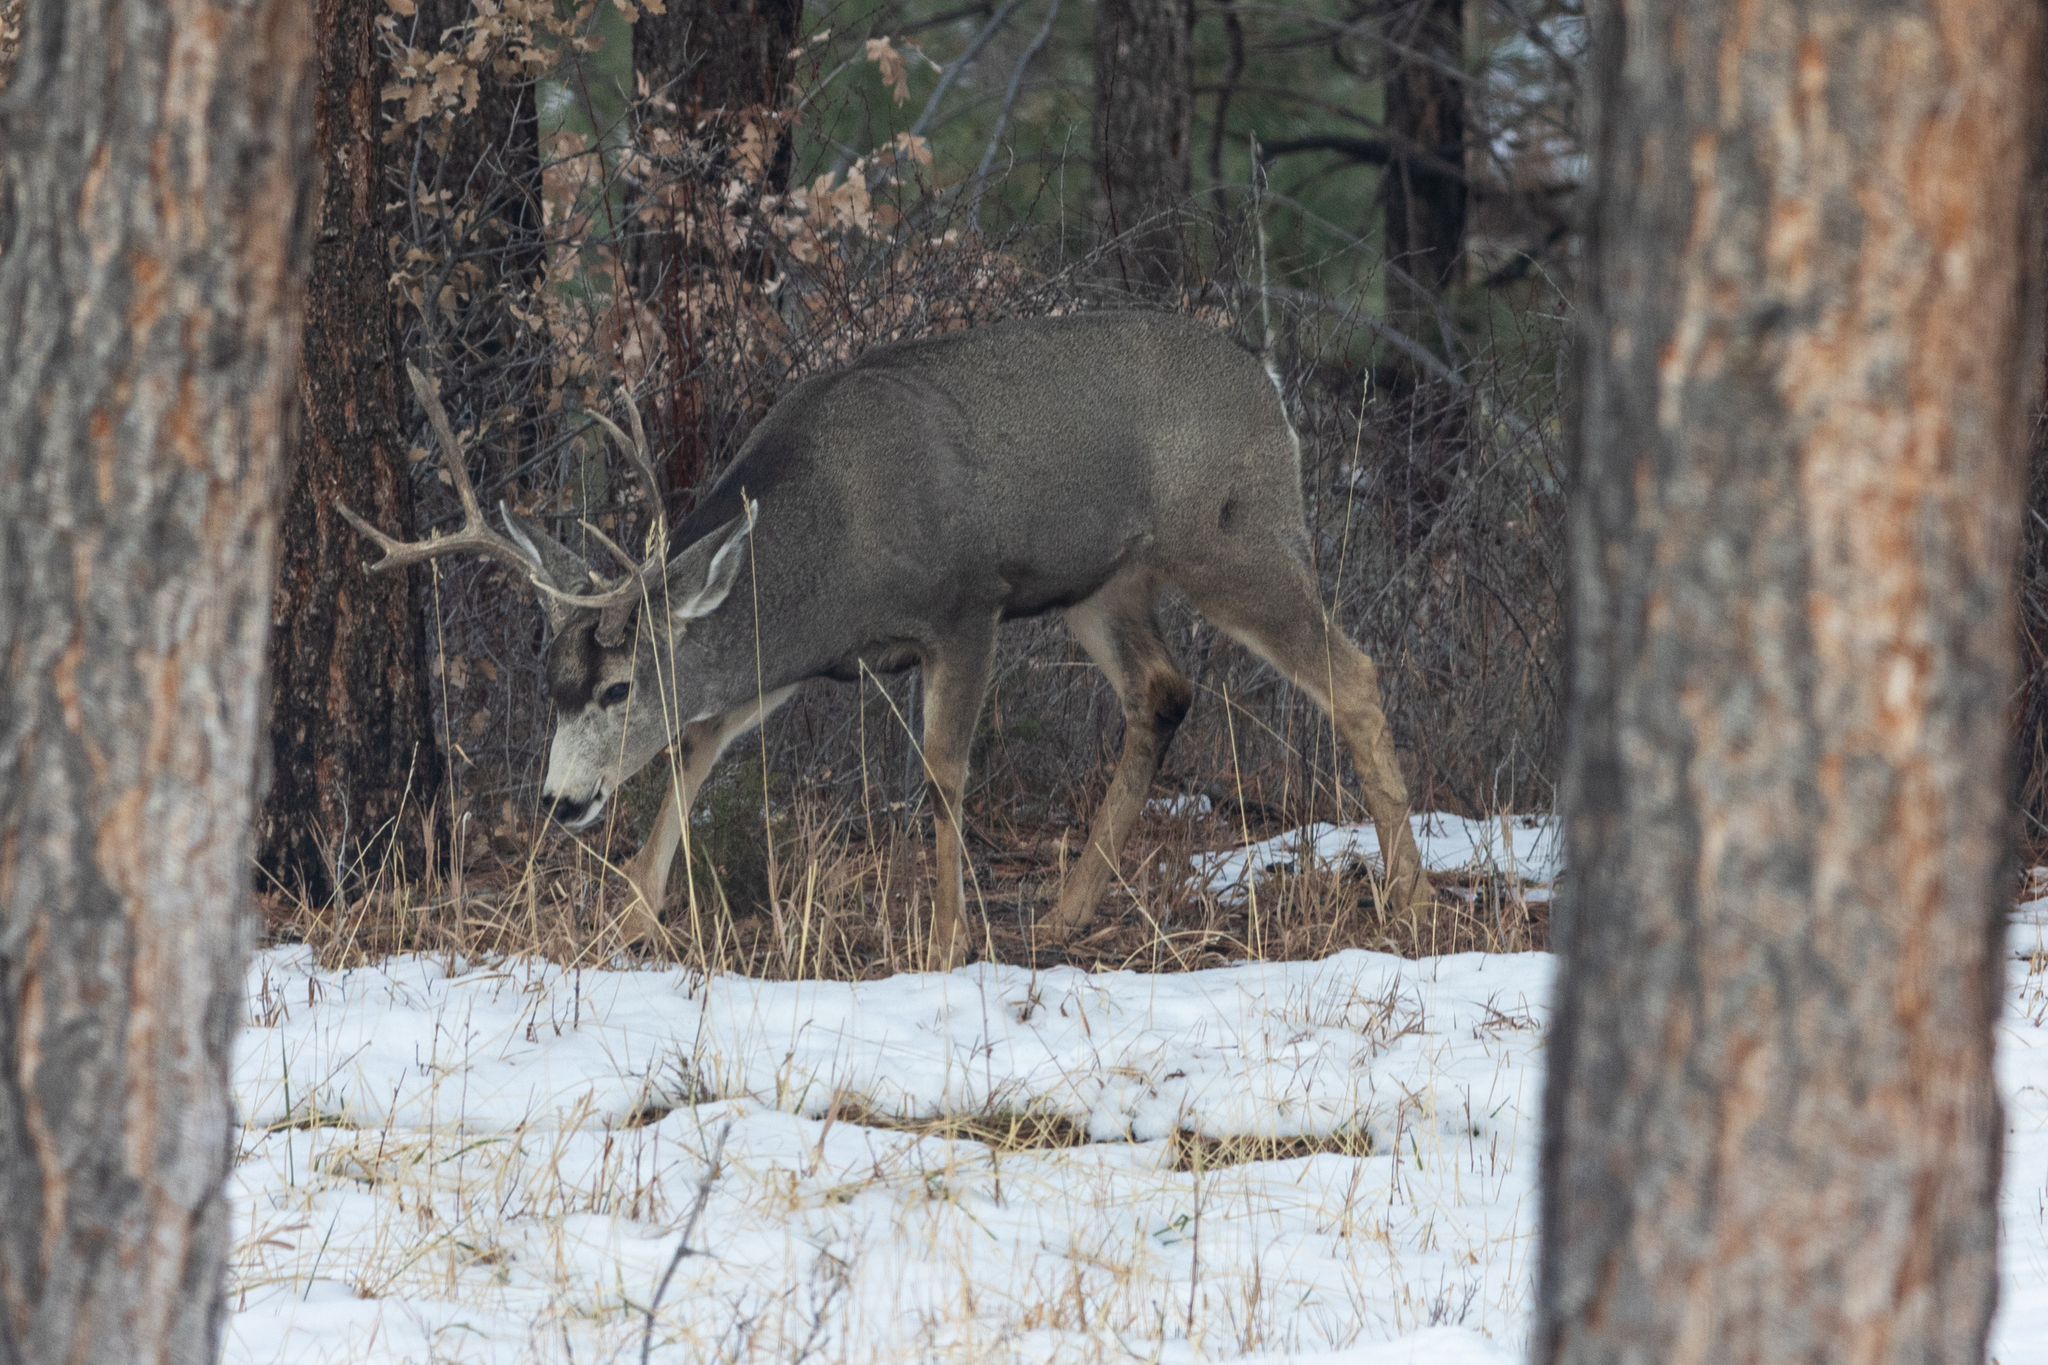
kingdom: Animalia
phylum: Chordata
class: Mammalia
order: Artiodactyla
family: Cervidae
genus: Odocoileus
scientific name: Odocoileus hemionus
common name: Mule deer
